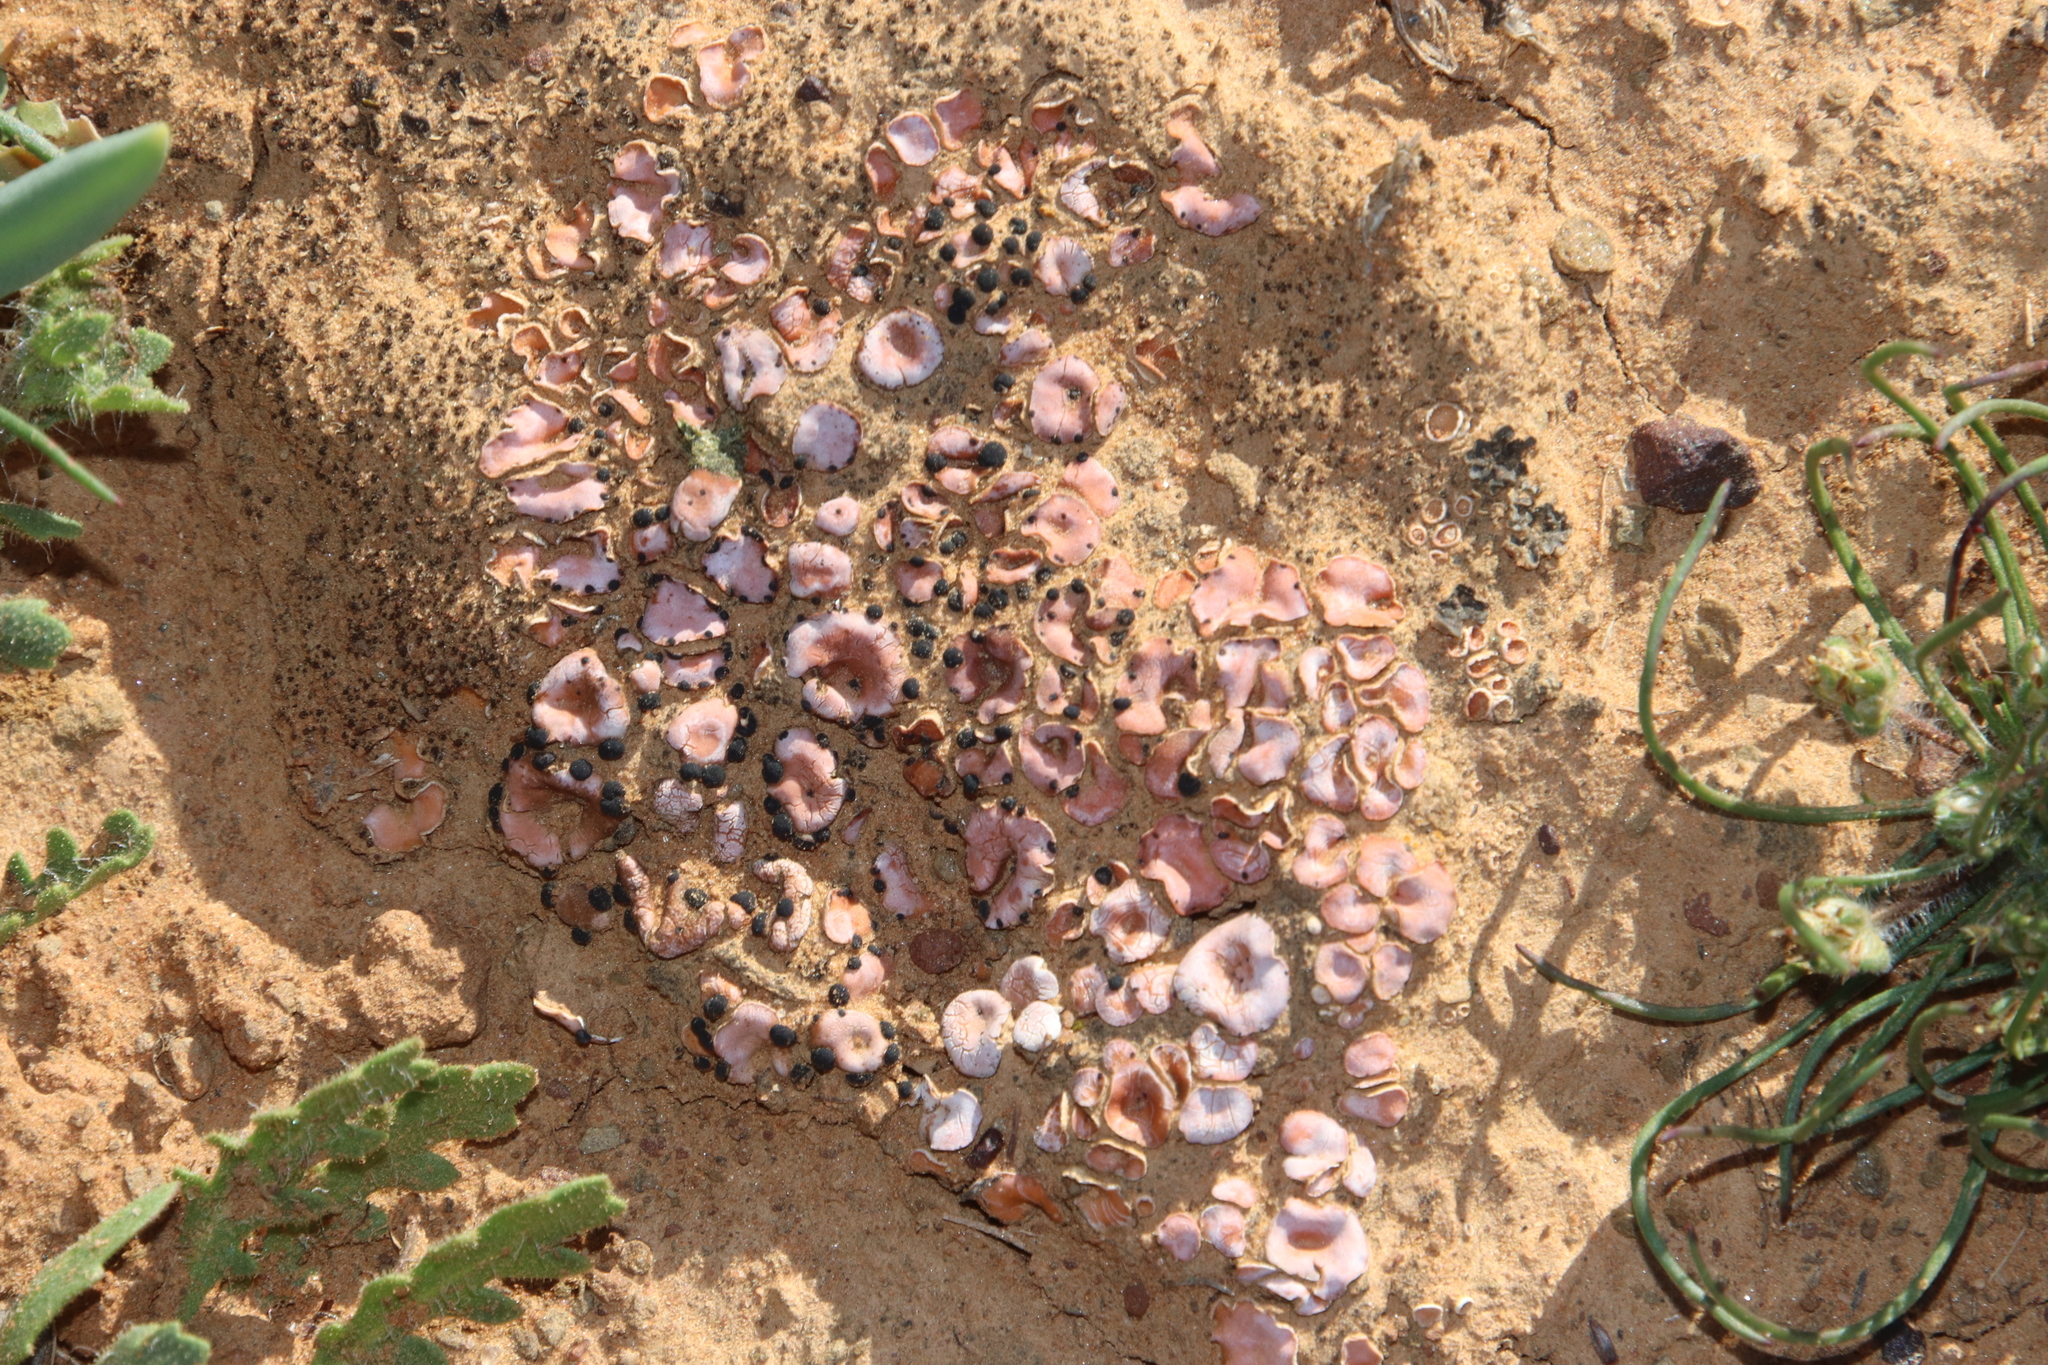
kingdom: Fungi
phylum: Ascomycota
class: Lecanoromycetes
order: Lecanorales
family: Psoraceae
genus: Psora
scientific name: Psora crenata
